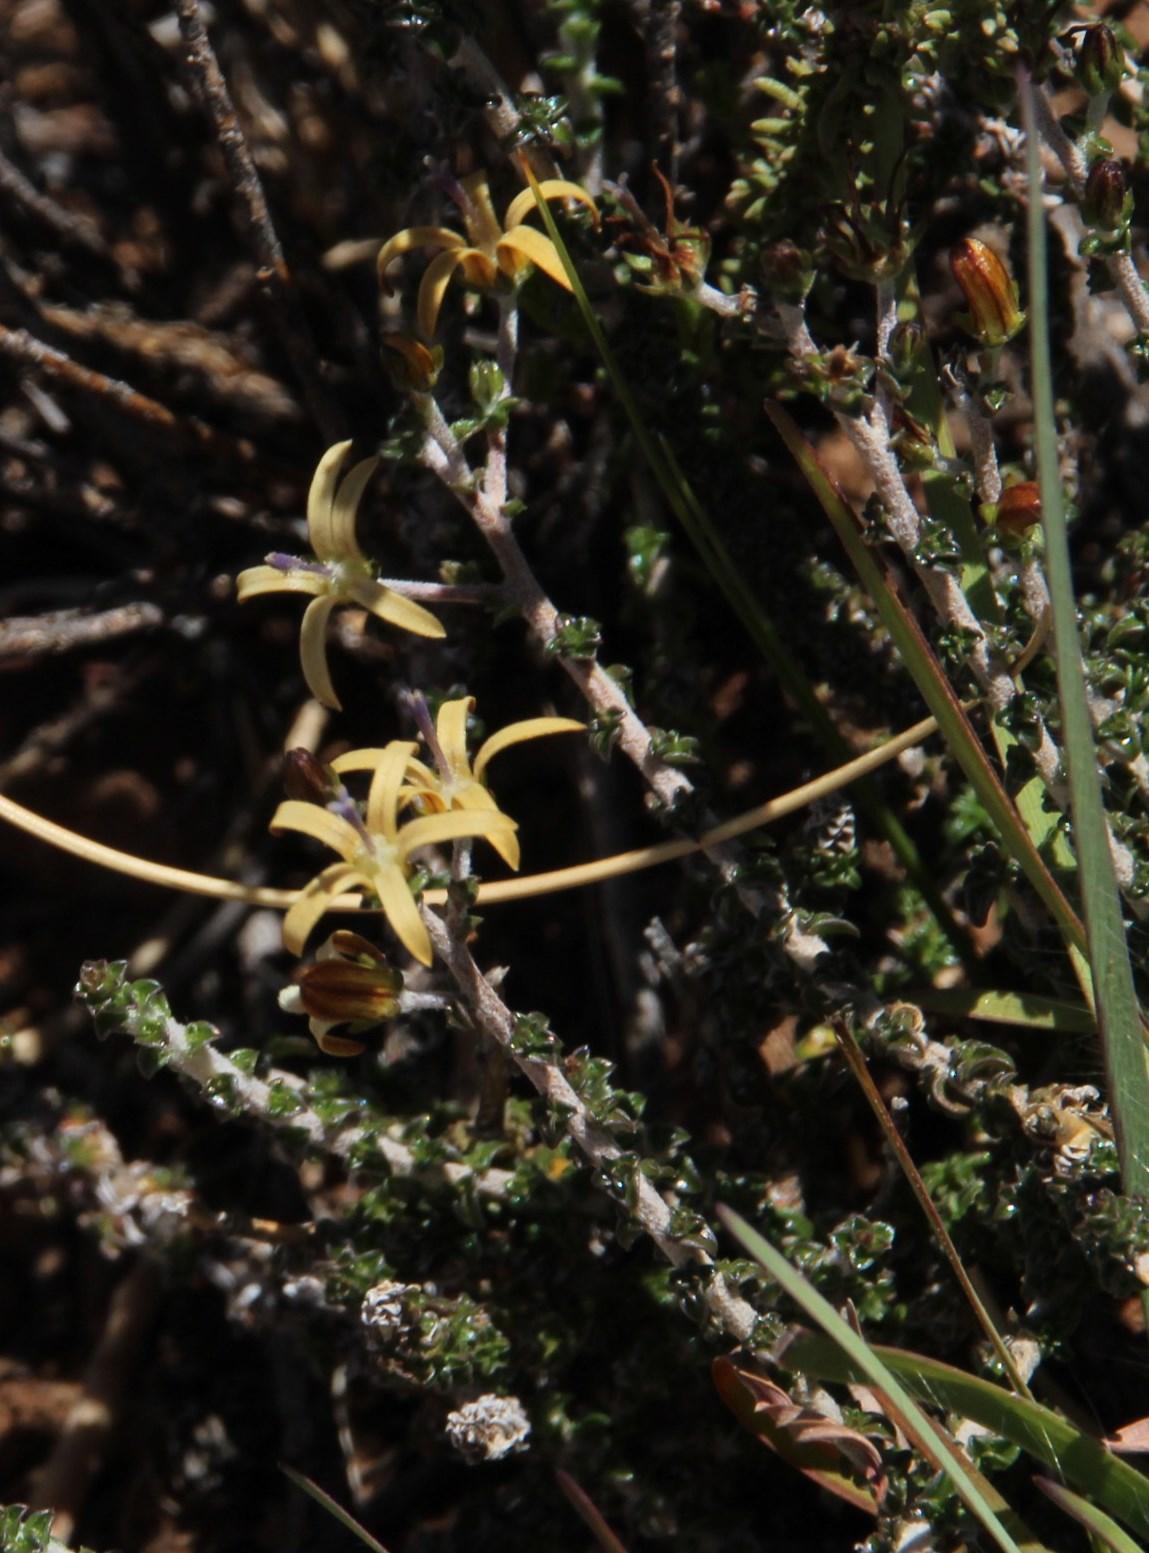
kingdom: Plantae
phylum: Tracheophyta
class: Magnoliopsida
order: Asterales
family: Campanulaceae
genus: Wahlenbergia
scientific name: Wahlenbergia nodosa
